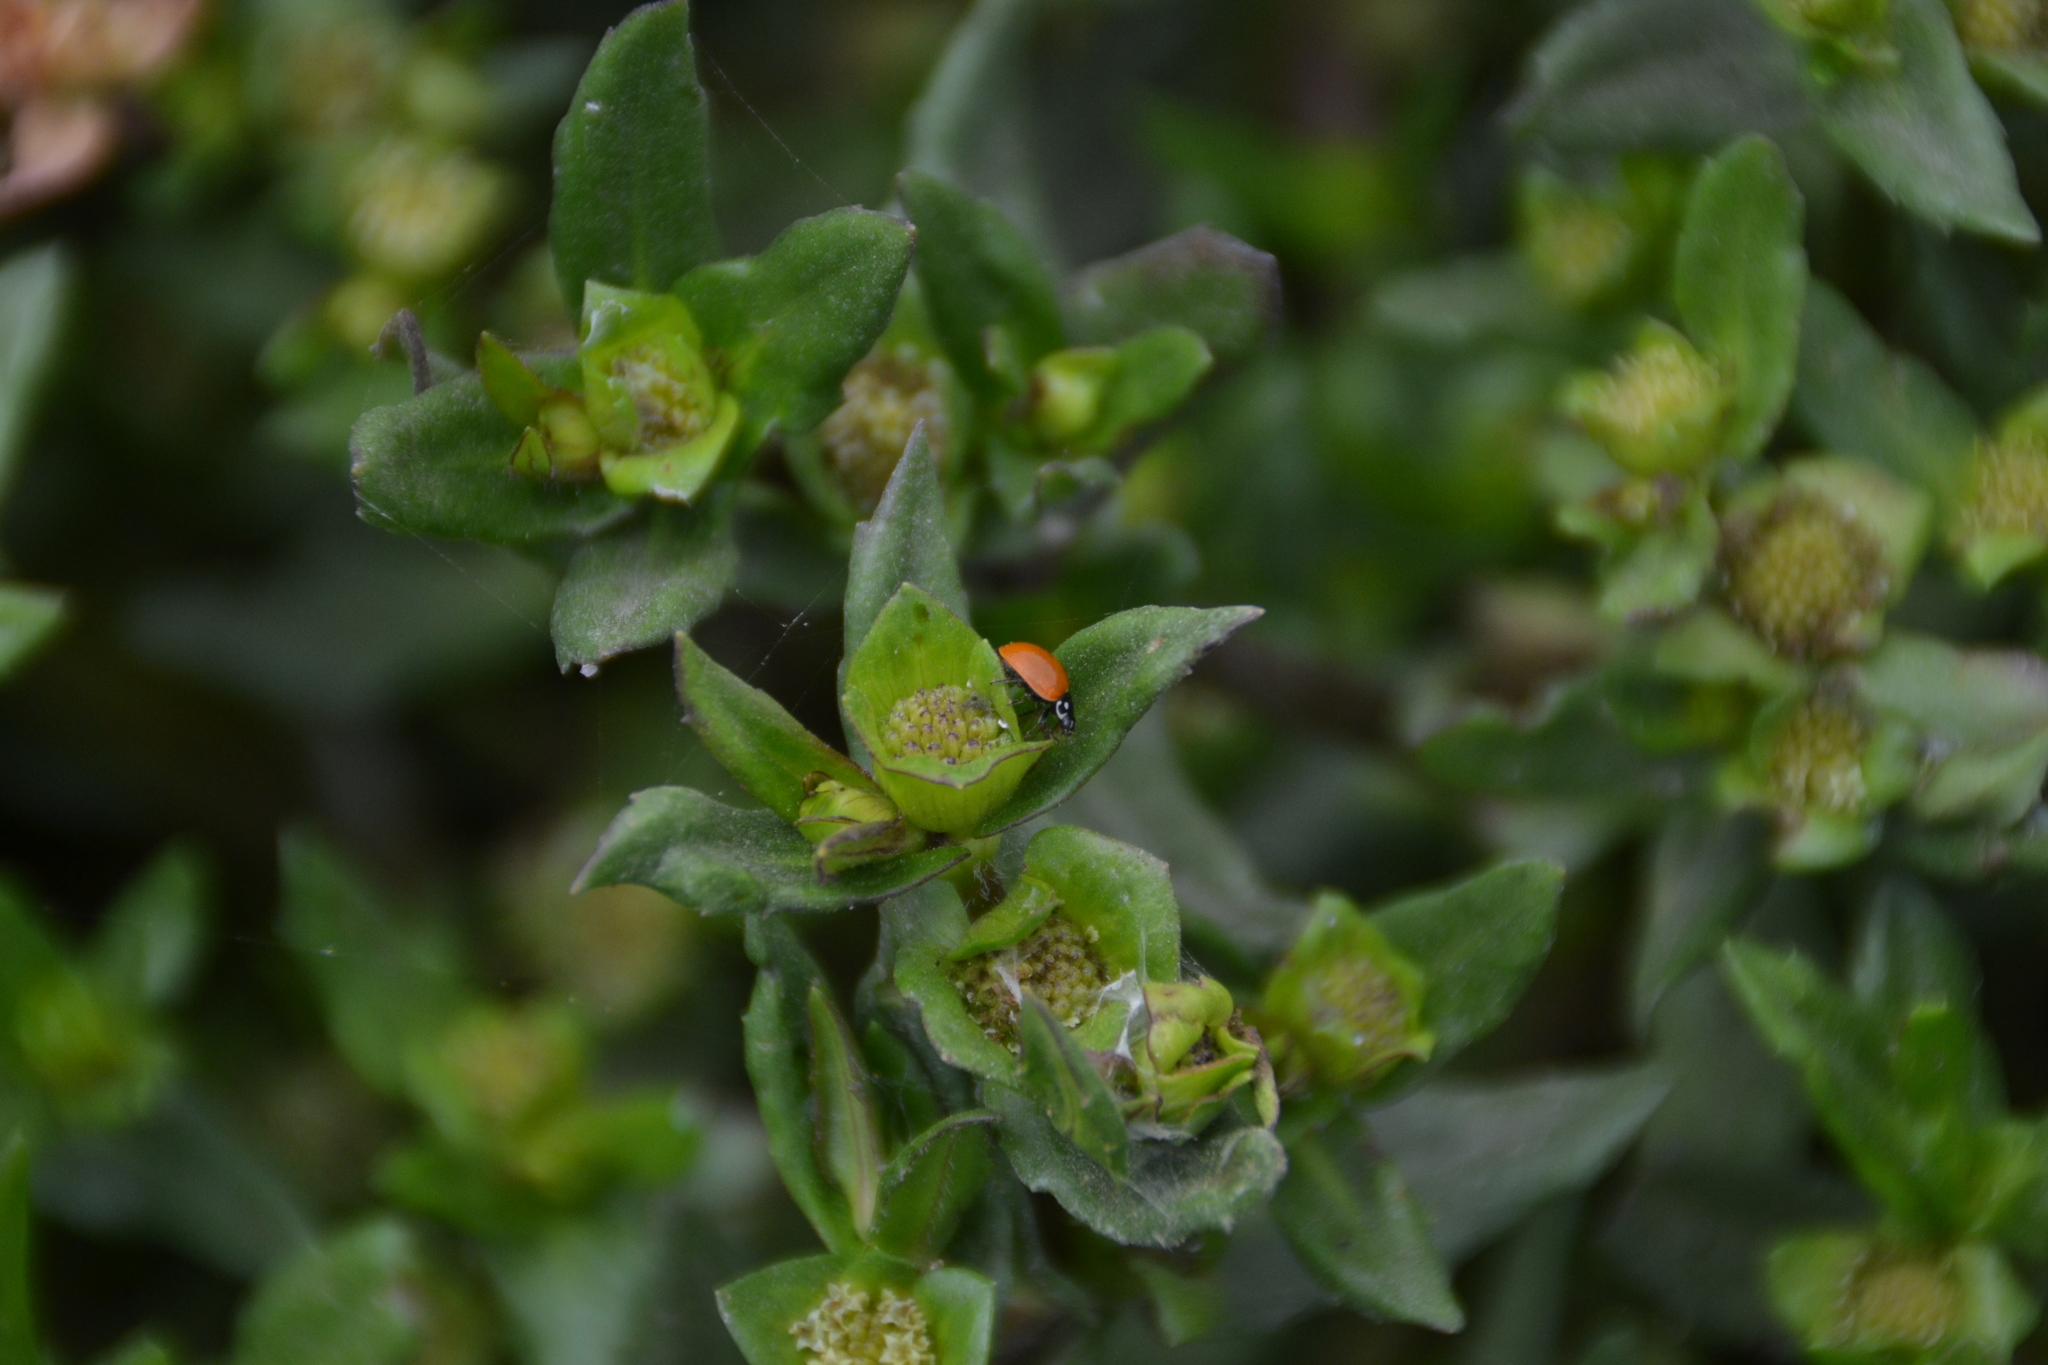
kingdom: Animalia
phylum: Arthropoda
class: Insecta
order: Coleoptera
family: Coccinellidae
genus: Cycloneda
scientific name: Cycloneda sanguinea
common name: Ladybird beetle
